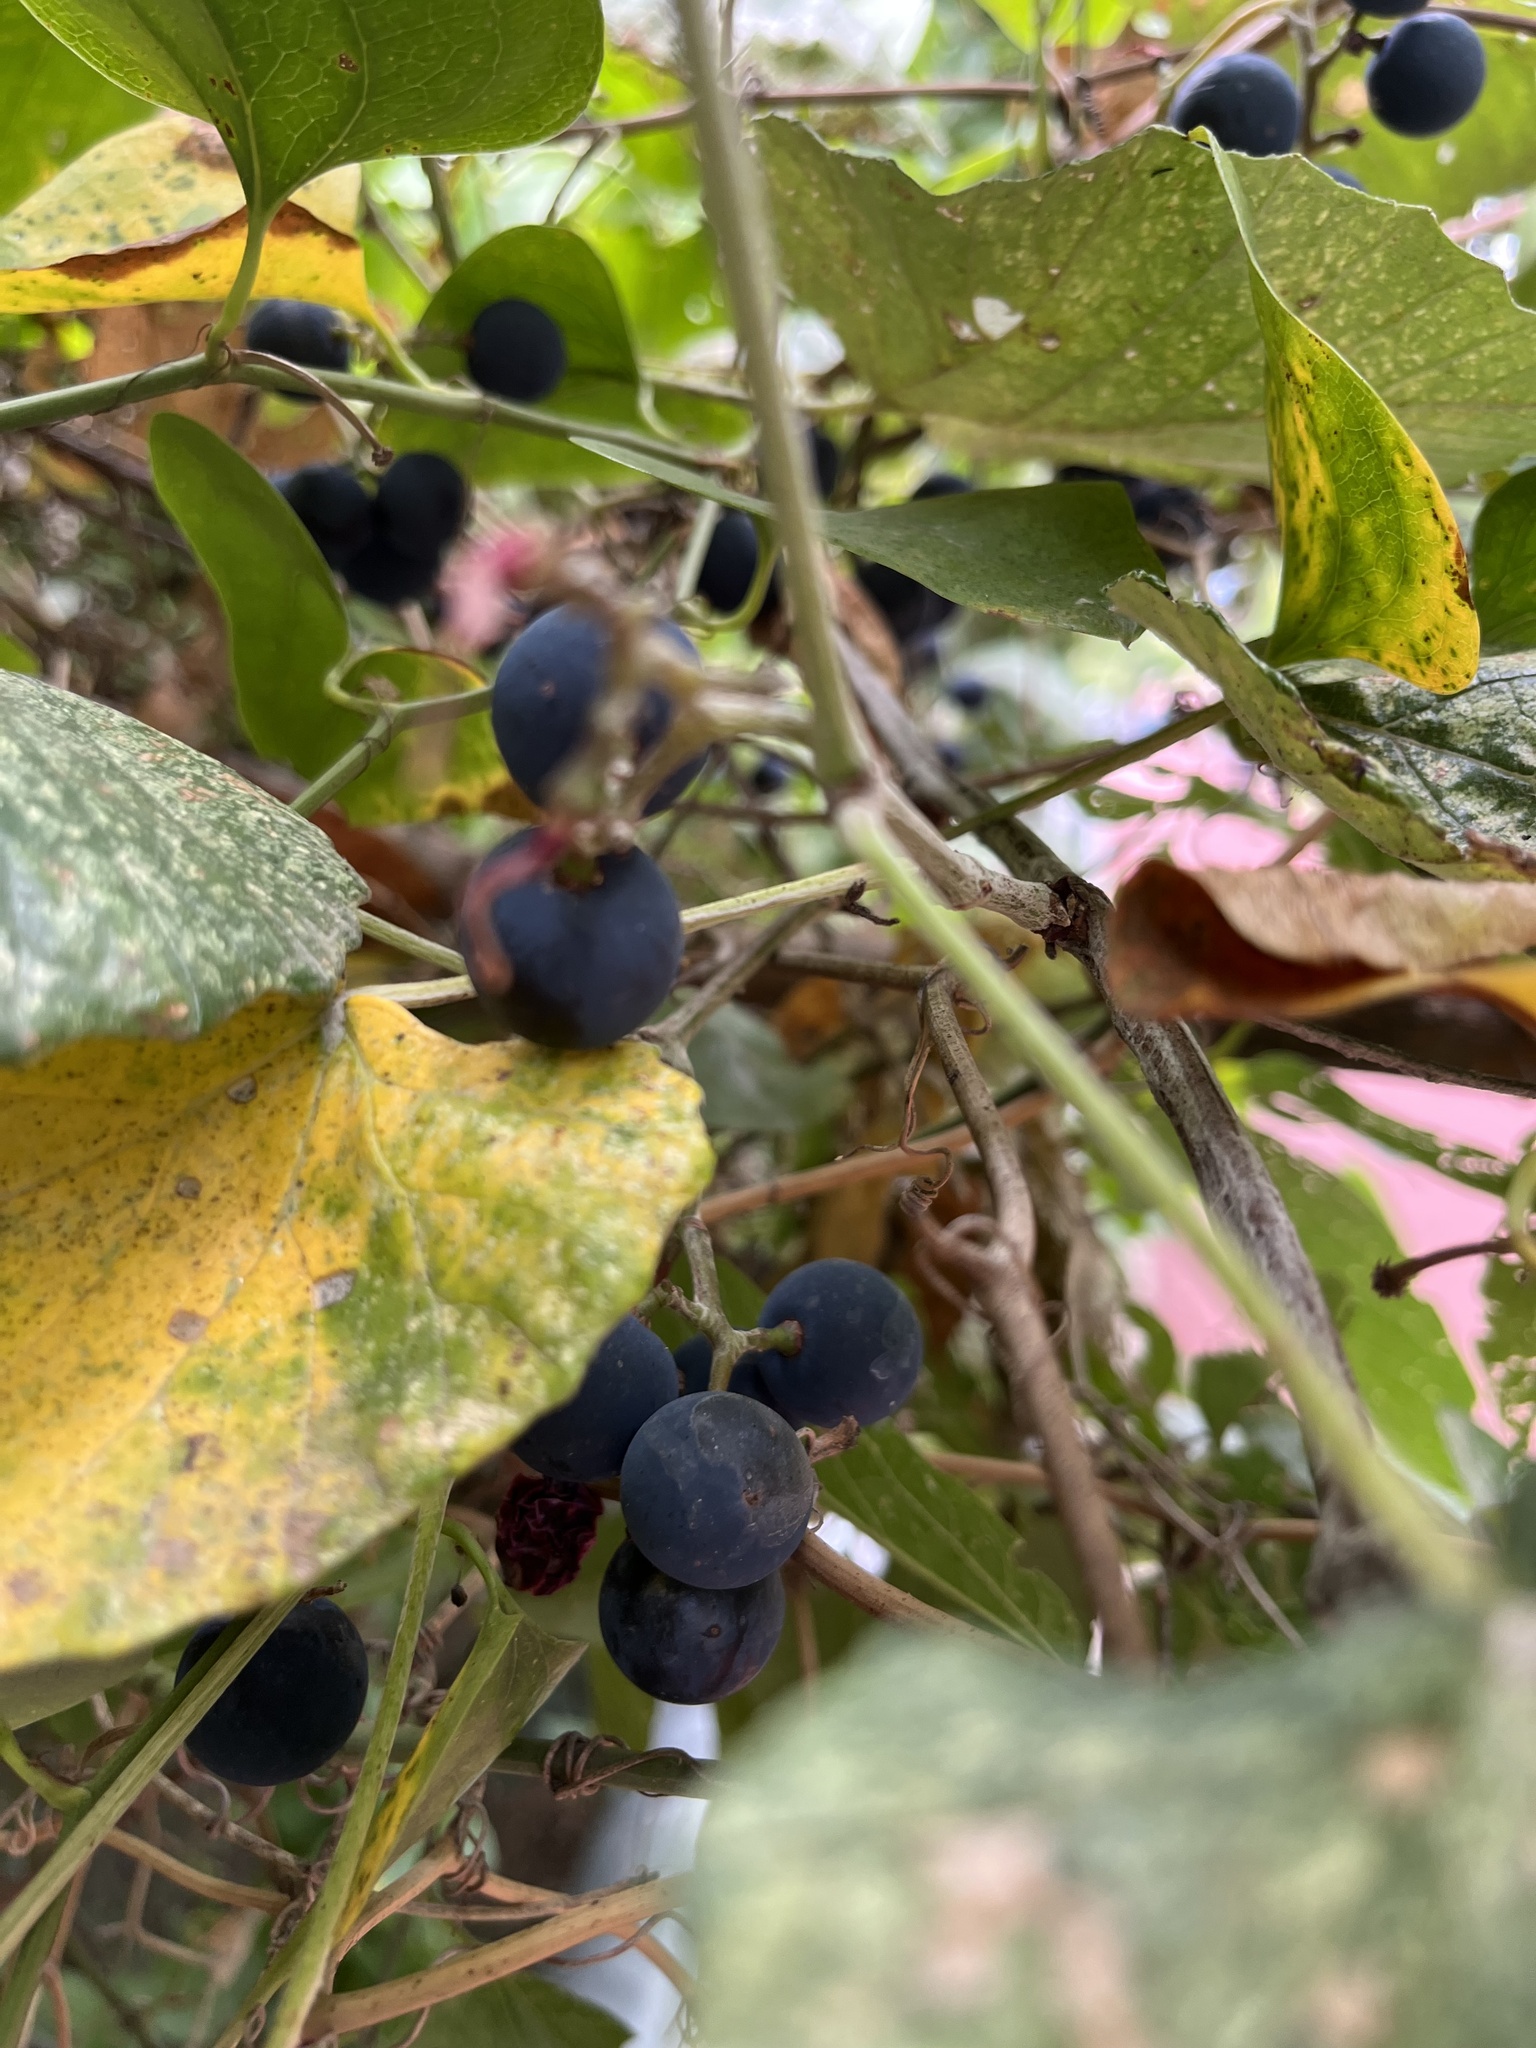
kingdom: Plantae
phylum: Tracheophyta
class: Magnoliopsida
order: Vitales
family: Vitaceae
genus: Vitis
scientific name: Vitis mustangensis
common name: Mustang grape
